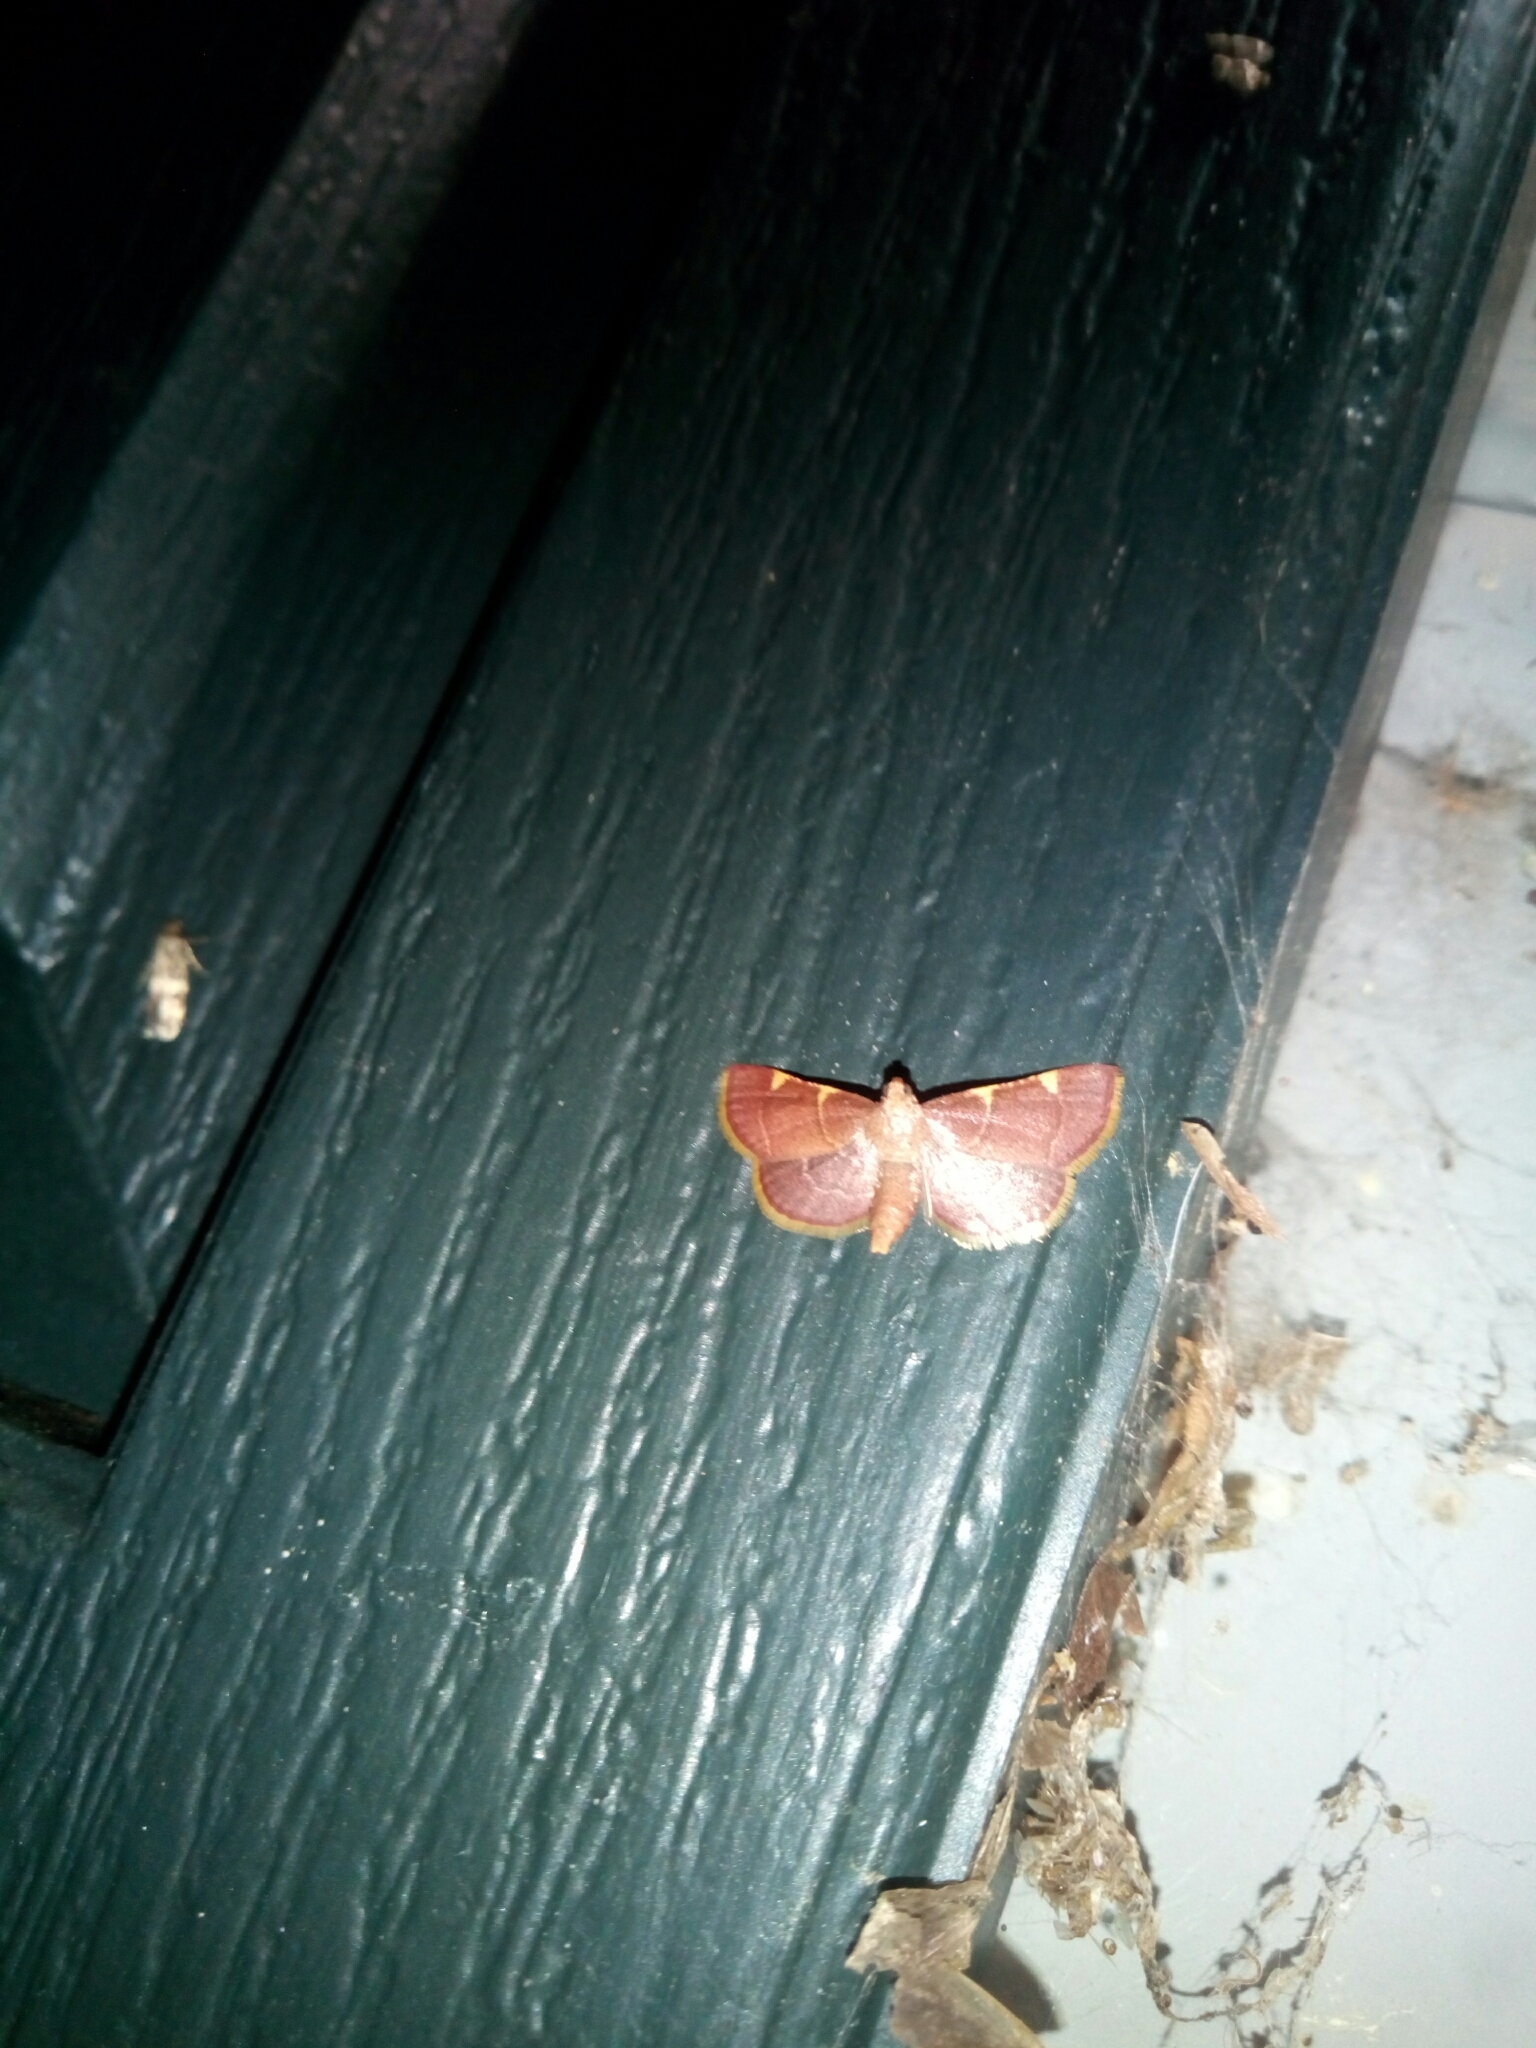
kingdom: Animalia
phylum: Arthropoda
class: Insecta
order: Lepidoptera
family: Pyralidae
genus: Hypsopygia
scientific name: Hypsopygia olinalis
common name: Yellow-fringed dolichomia moth
